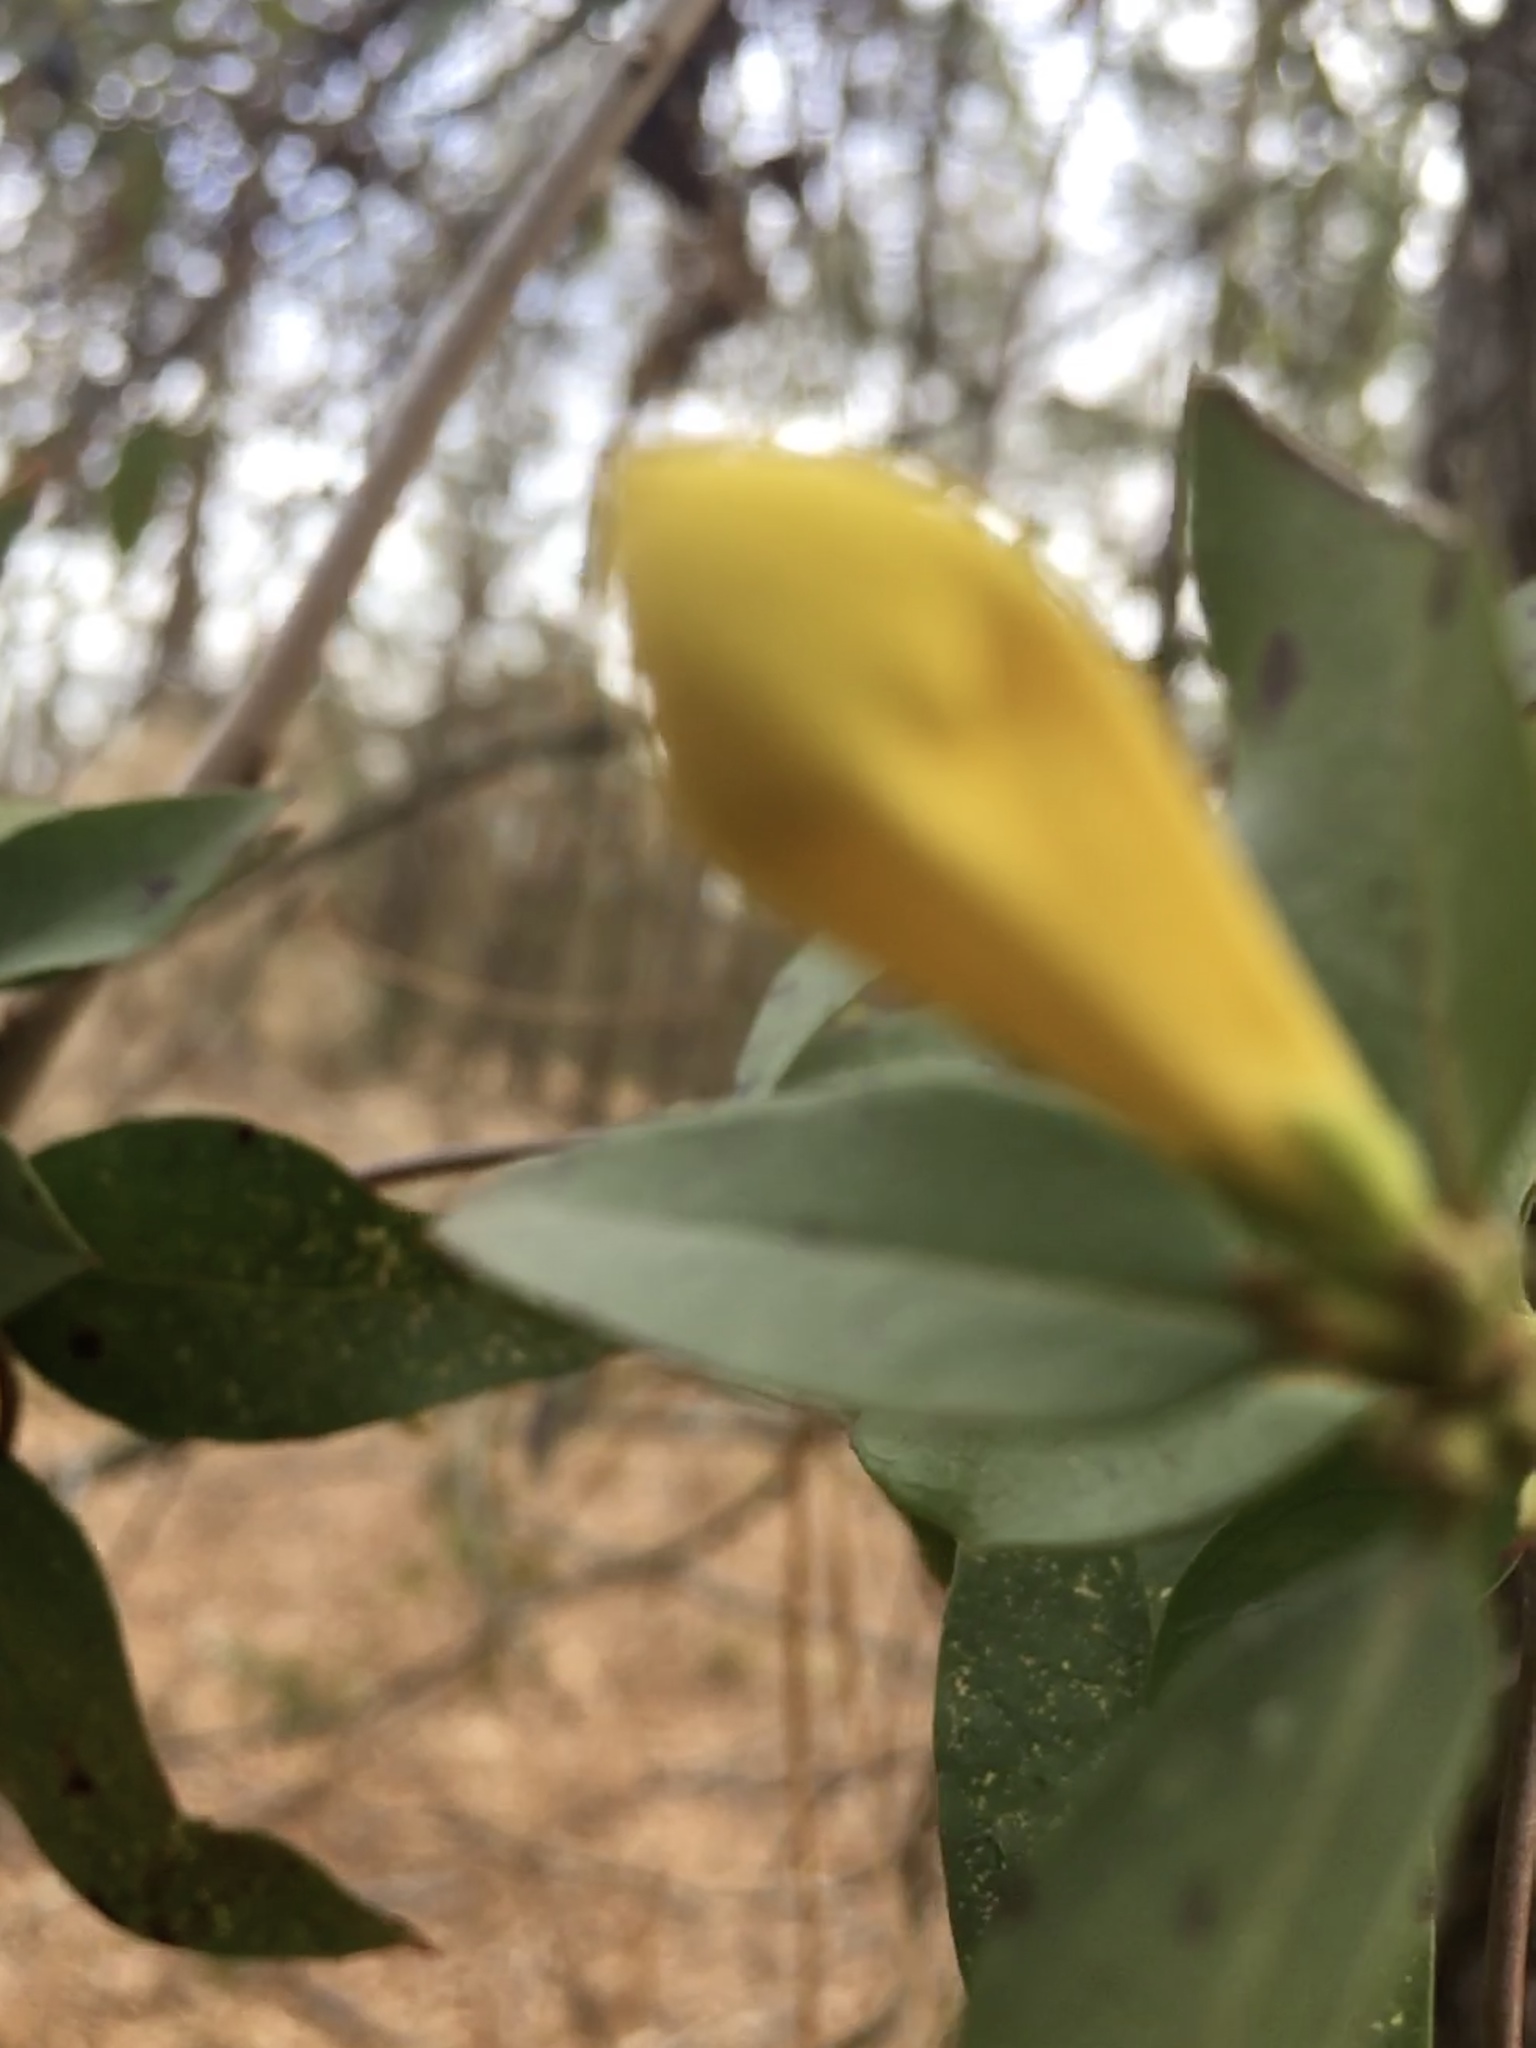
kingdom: Plantae
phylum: Tracheophyta
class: Magnoliopsida
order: Gentianales
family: Gelsemiaceae
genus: Gelsemium
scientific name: Gelsemium sempervirens
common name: Carolina-jasmine
